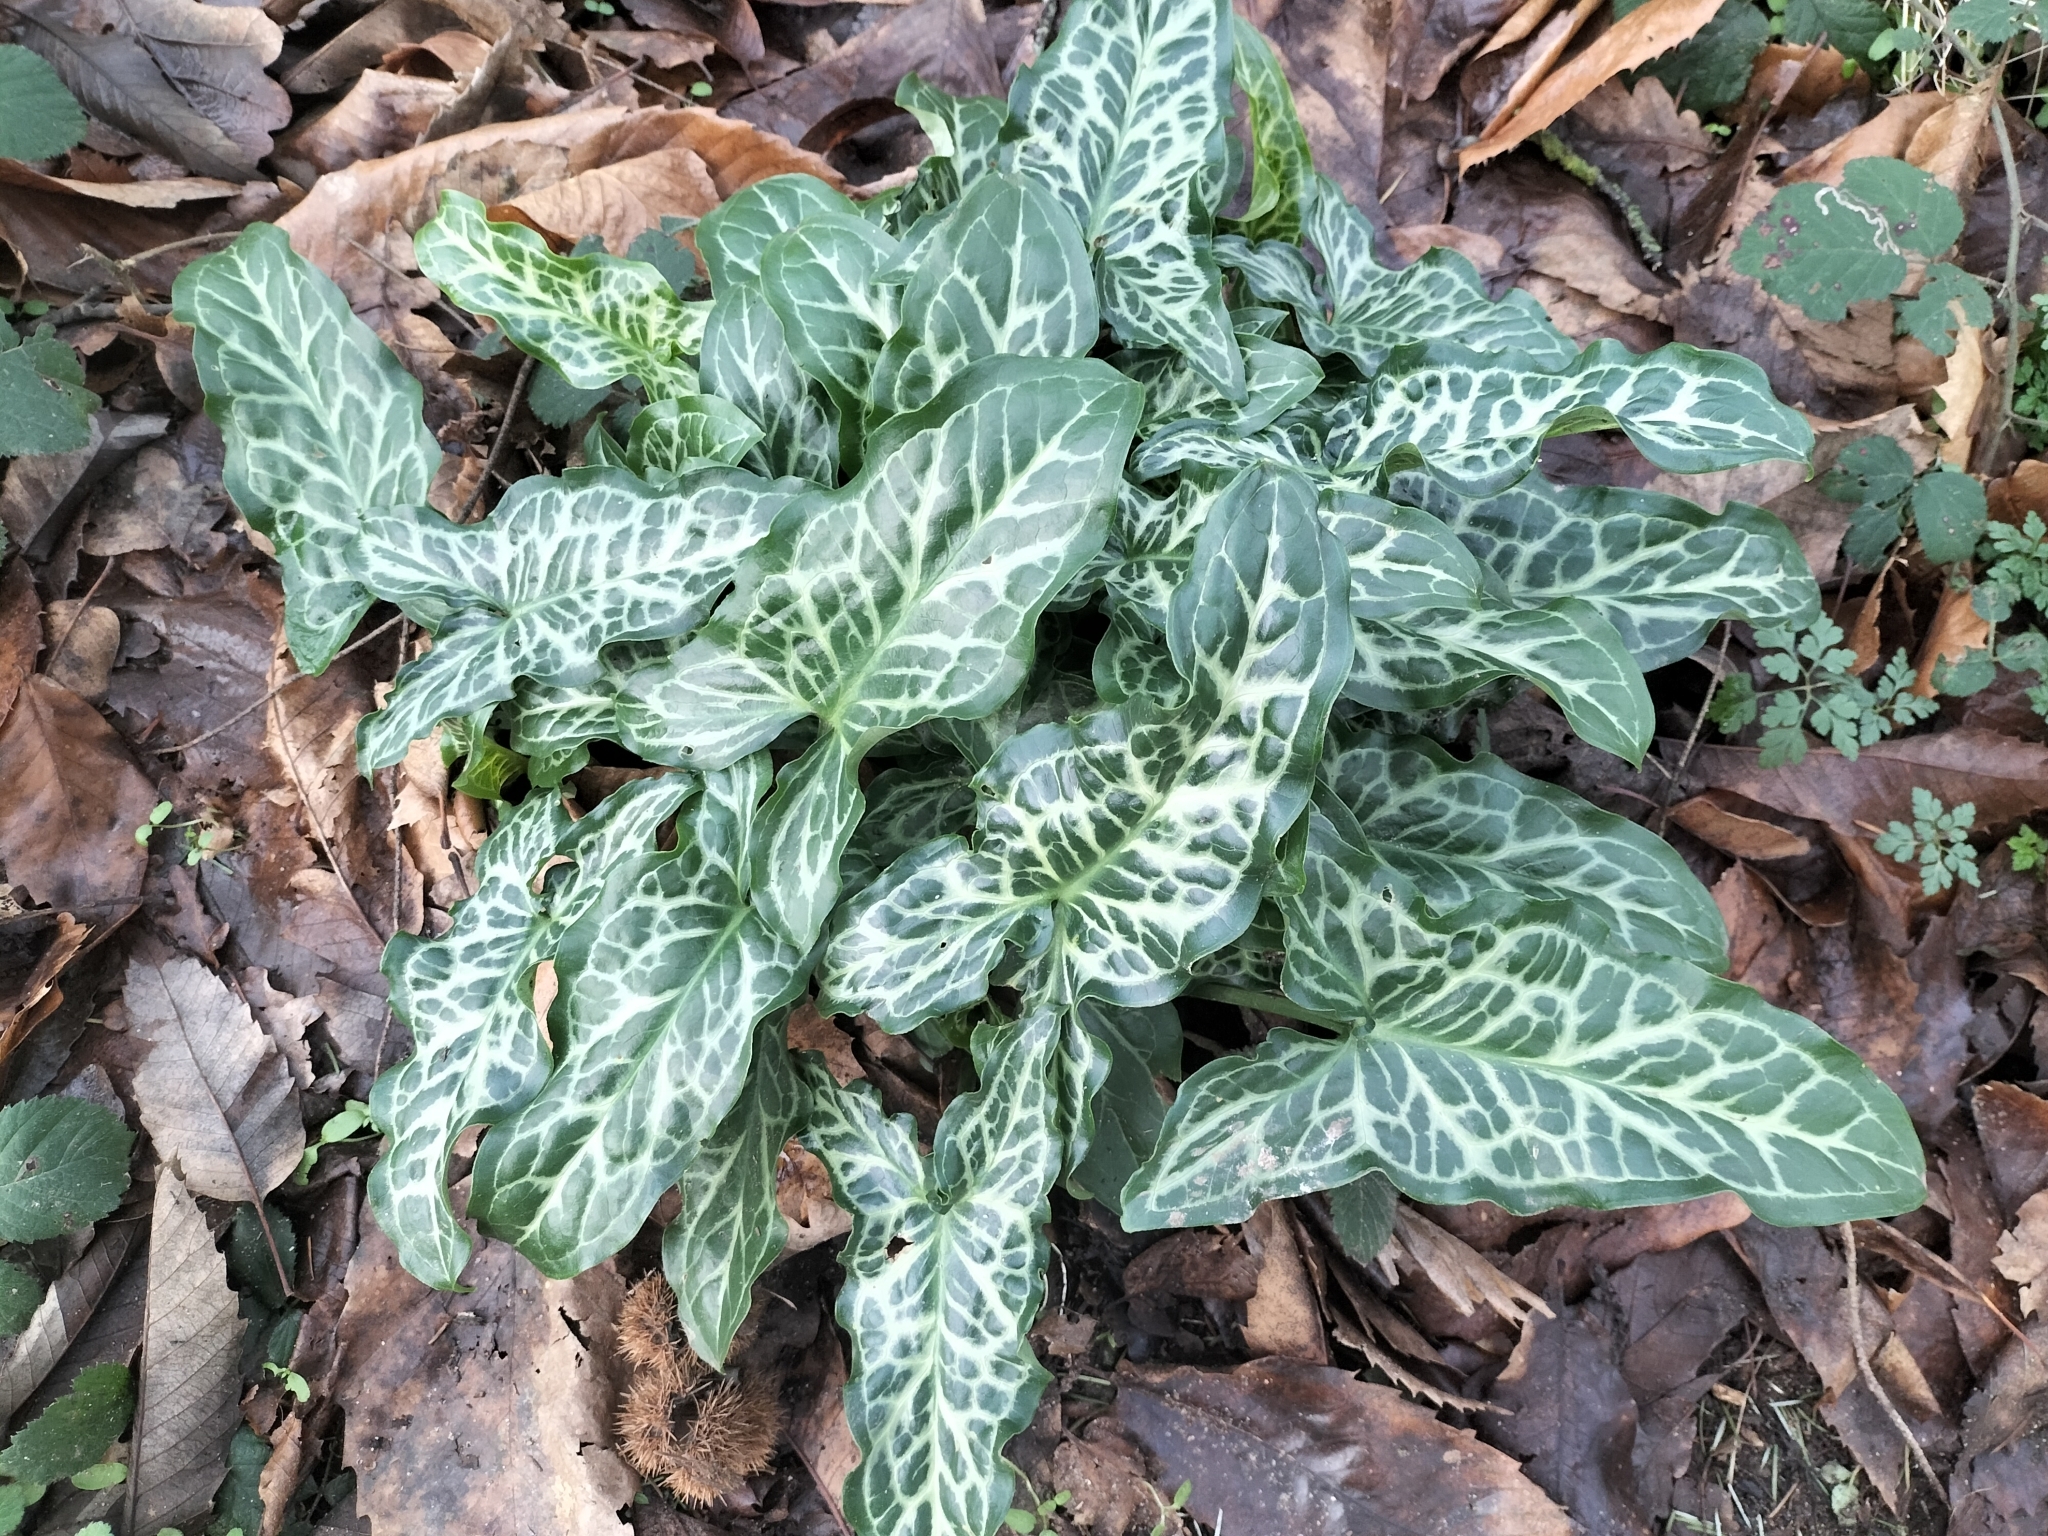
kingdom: Plantae
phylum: Tracheophyta
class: Liliopsida
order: Alismatales
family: Araceae
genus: Arum
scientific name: Arum italicum
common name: Italian lords-and-ladies
